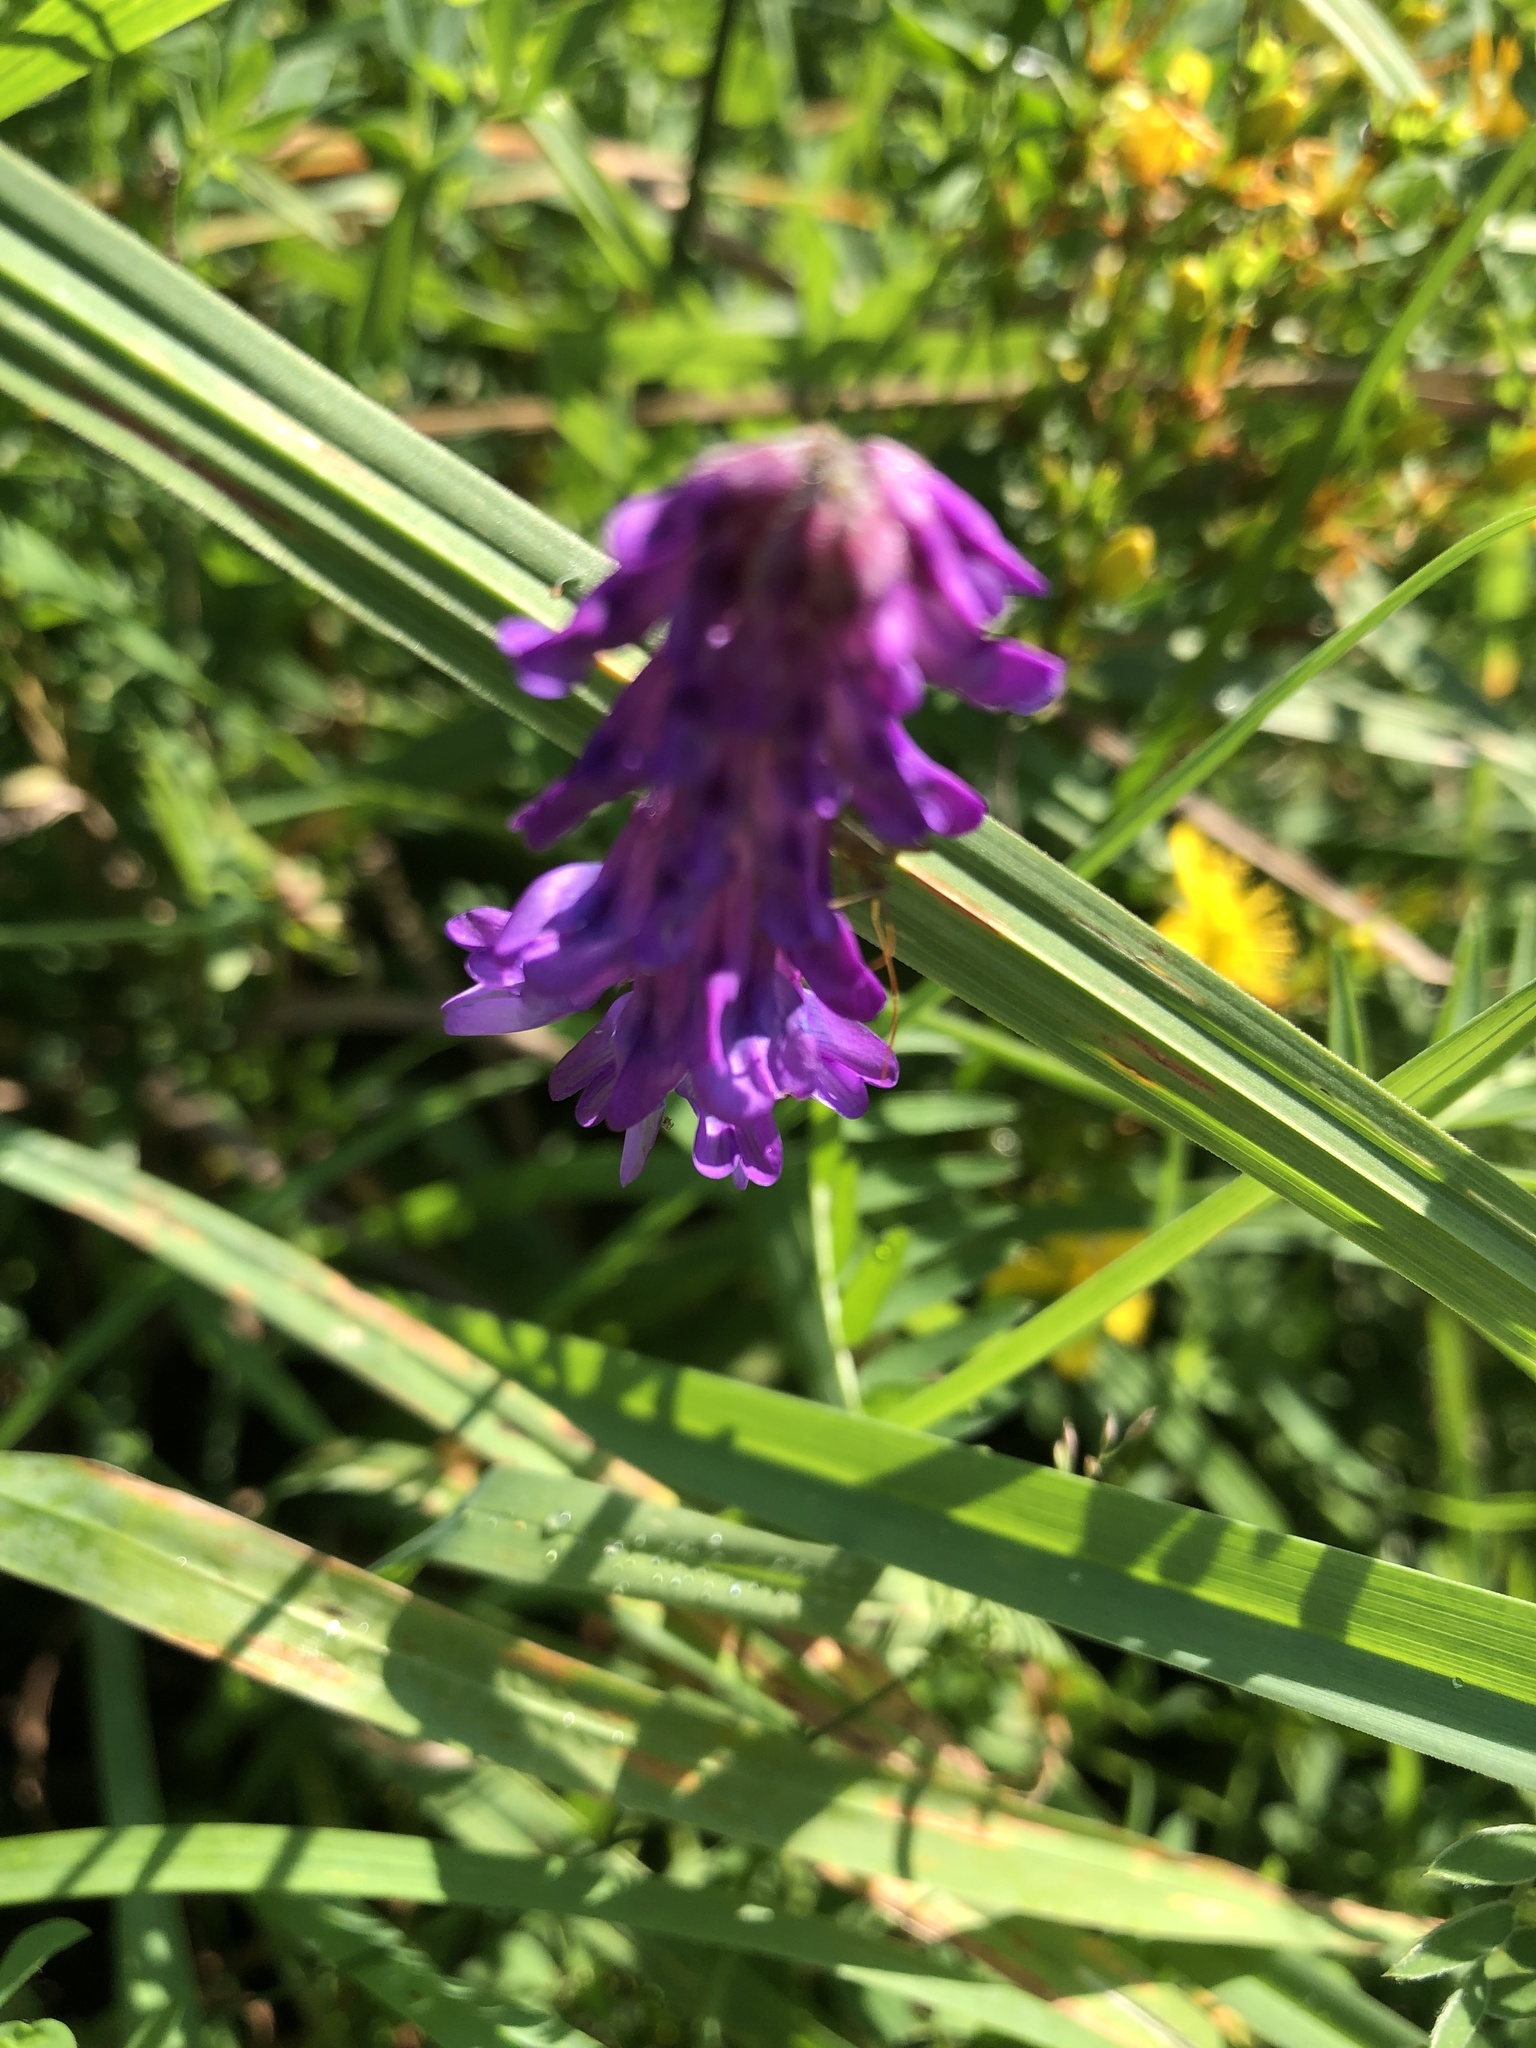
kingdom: Plantae
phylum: Tracheophyta
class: Magnoliopsida
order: Fabales
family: Fabaceae
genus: Vicia
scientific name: Vicia cracca
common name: Bird vetch
